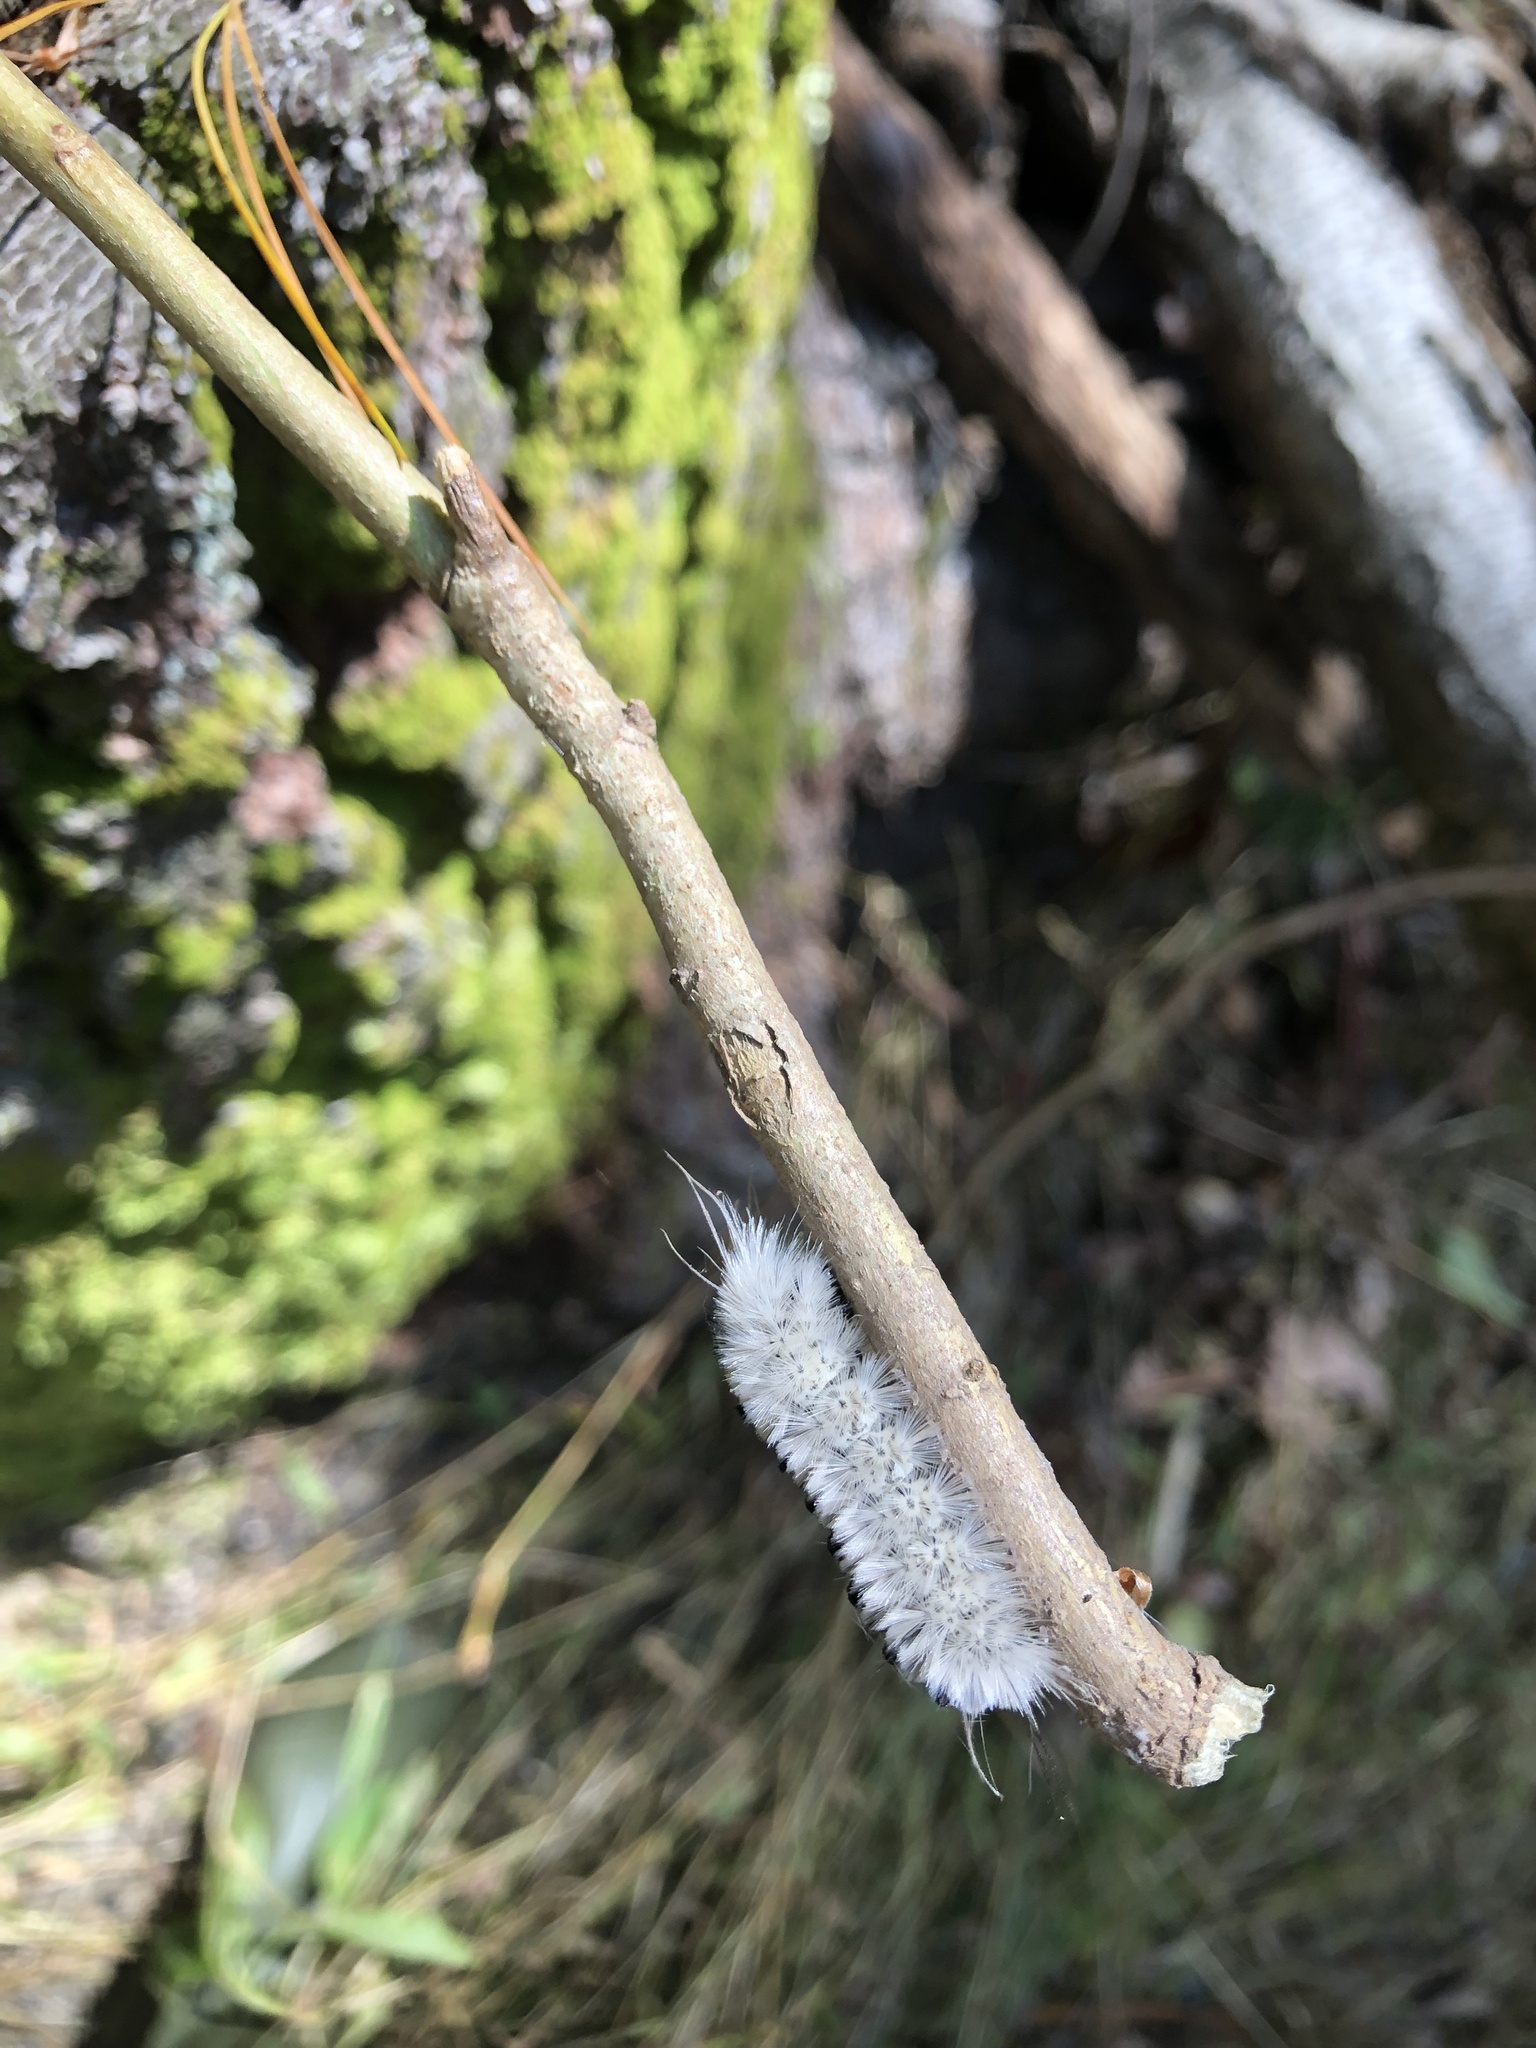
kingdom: Animalia
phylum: Arthropoda
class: Insecta
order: Lepidoptera
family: Erebidae
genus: Lophocampa
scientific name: Lophocampa caryae
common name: Hickory tussock moth
